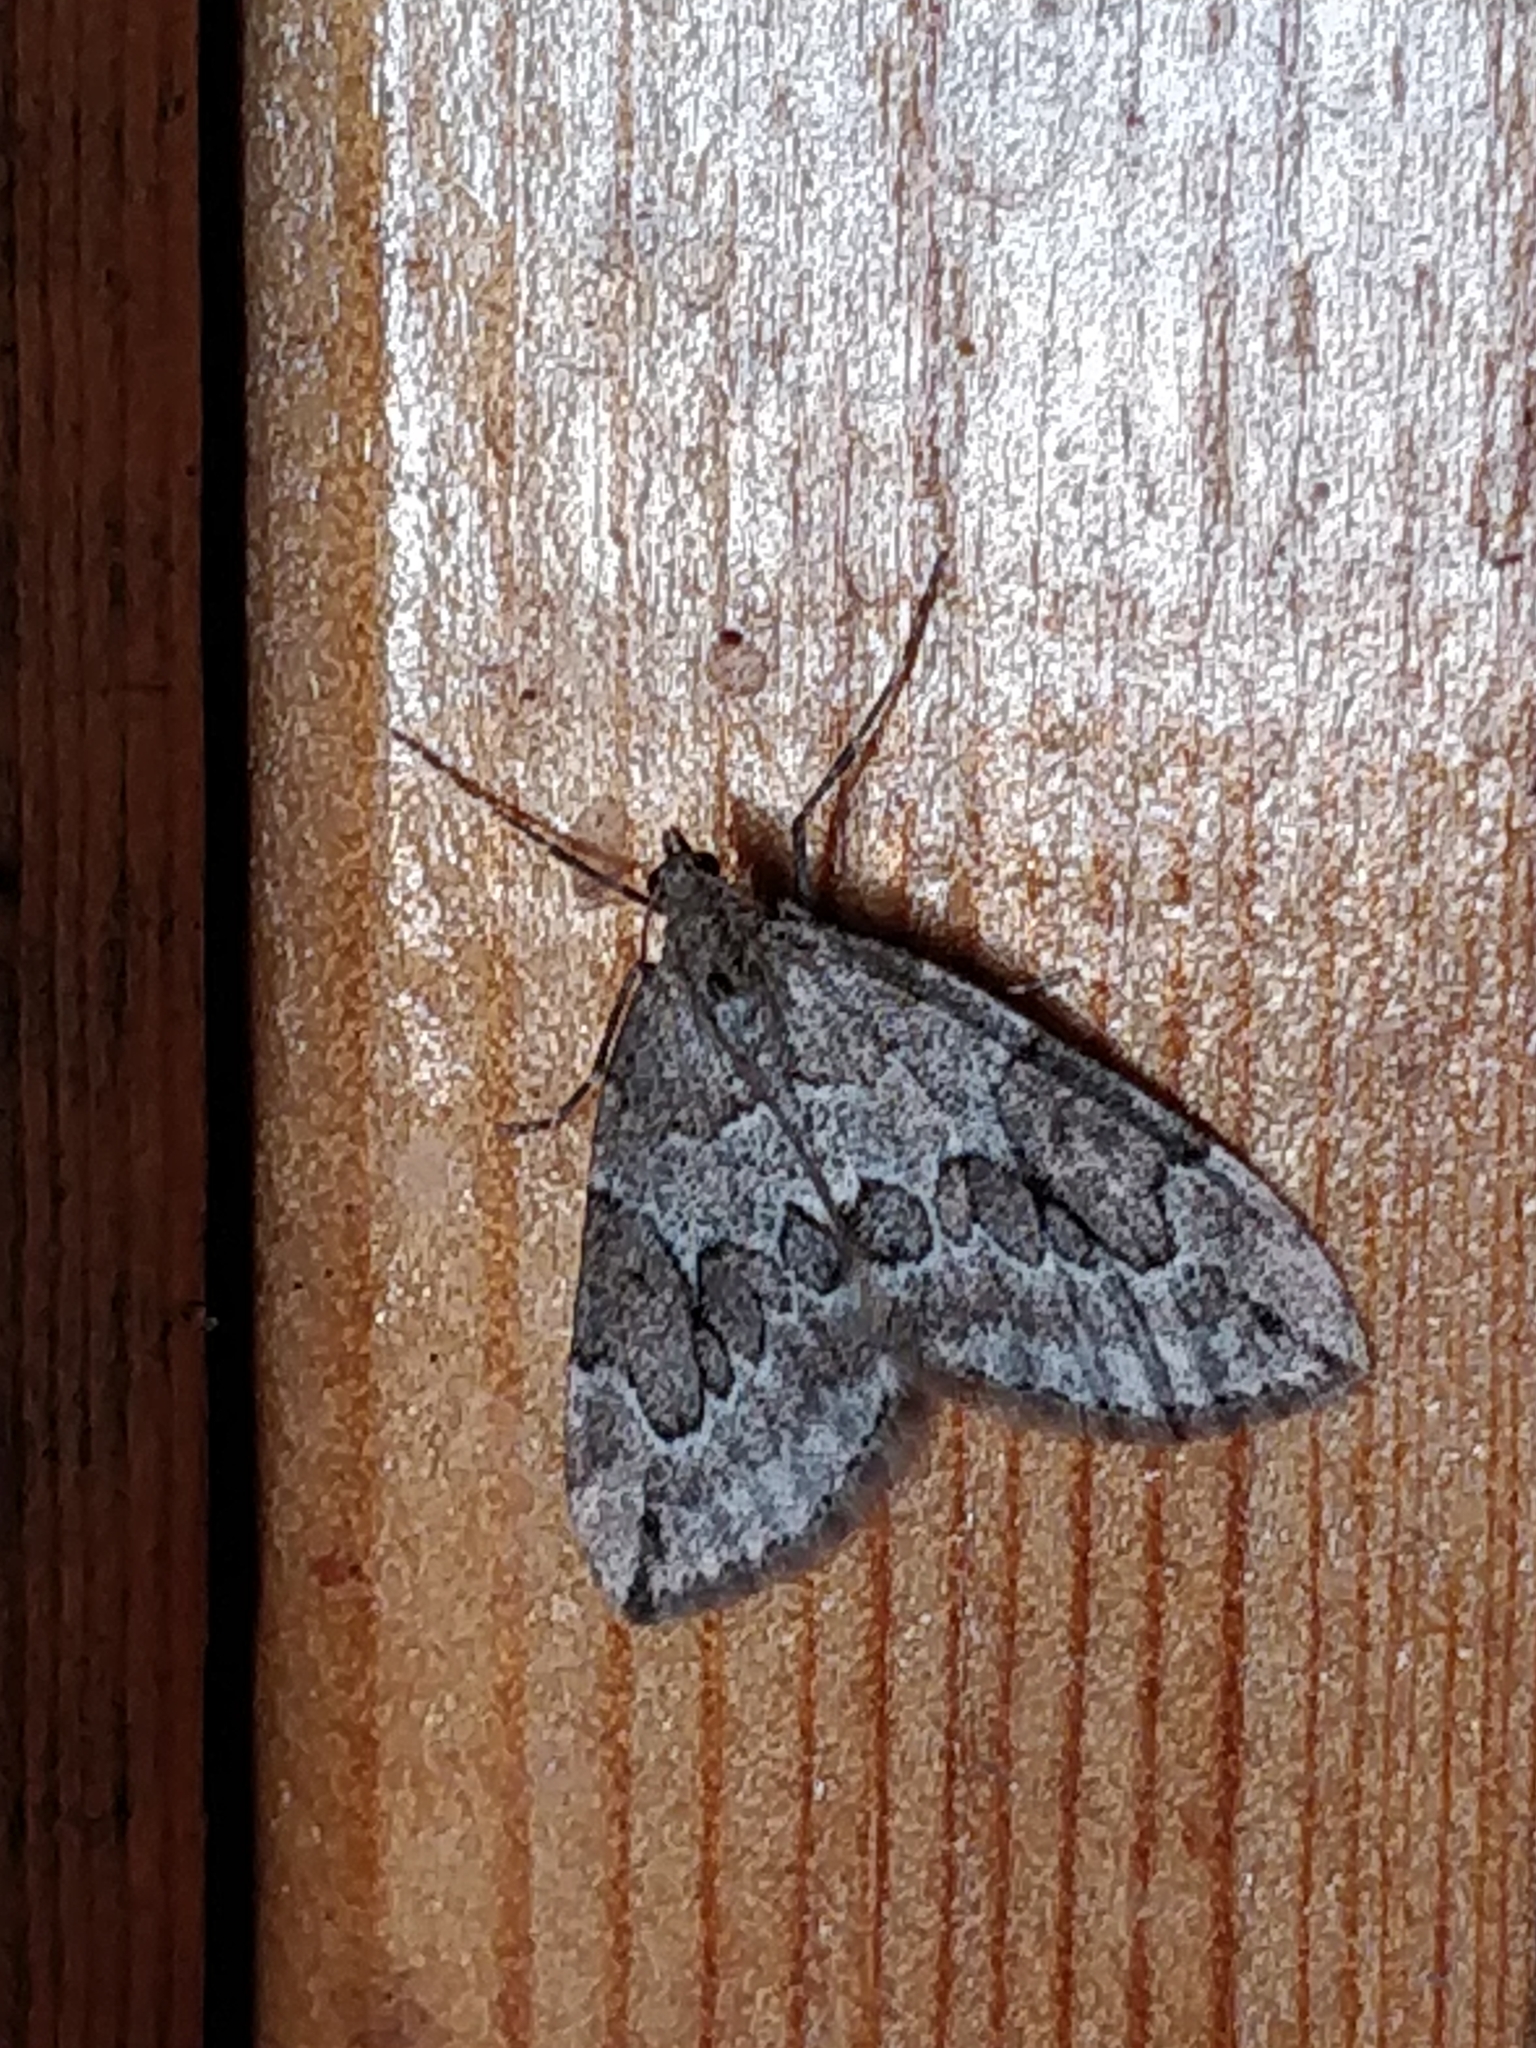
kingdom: Animalia
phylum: Arthropoda
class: Insecta
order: Lepidoptera
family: Geometridae
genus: Thera
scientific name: Thera juniperata
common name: Juniper carpet
